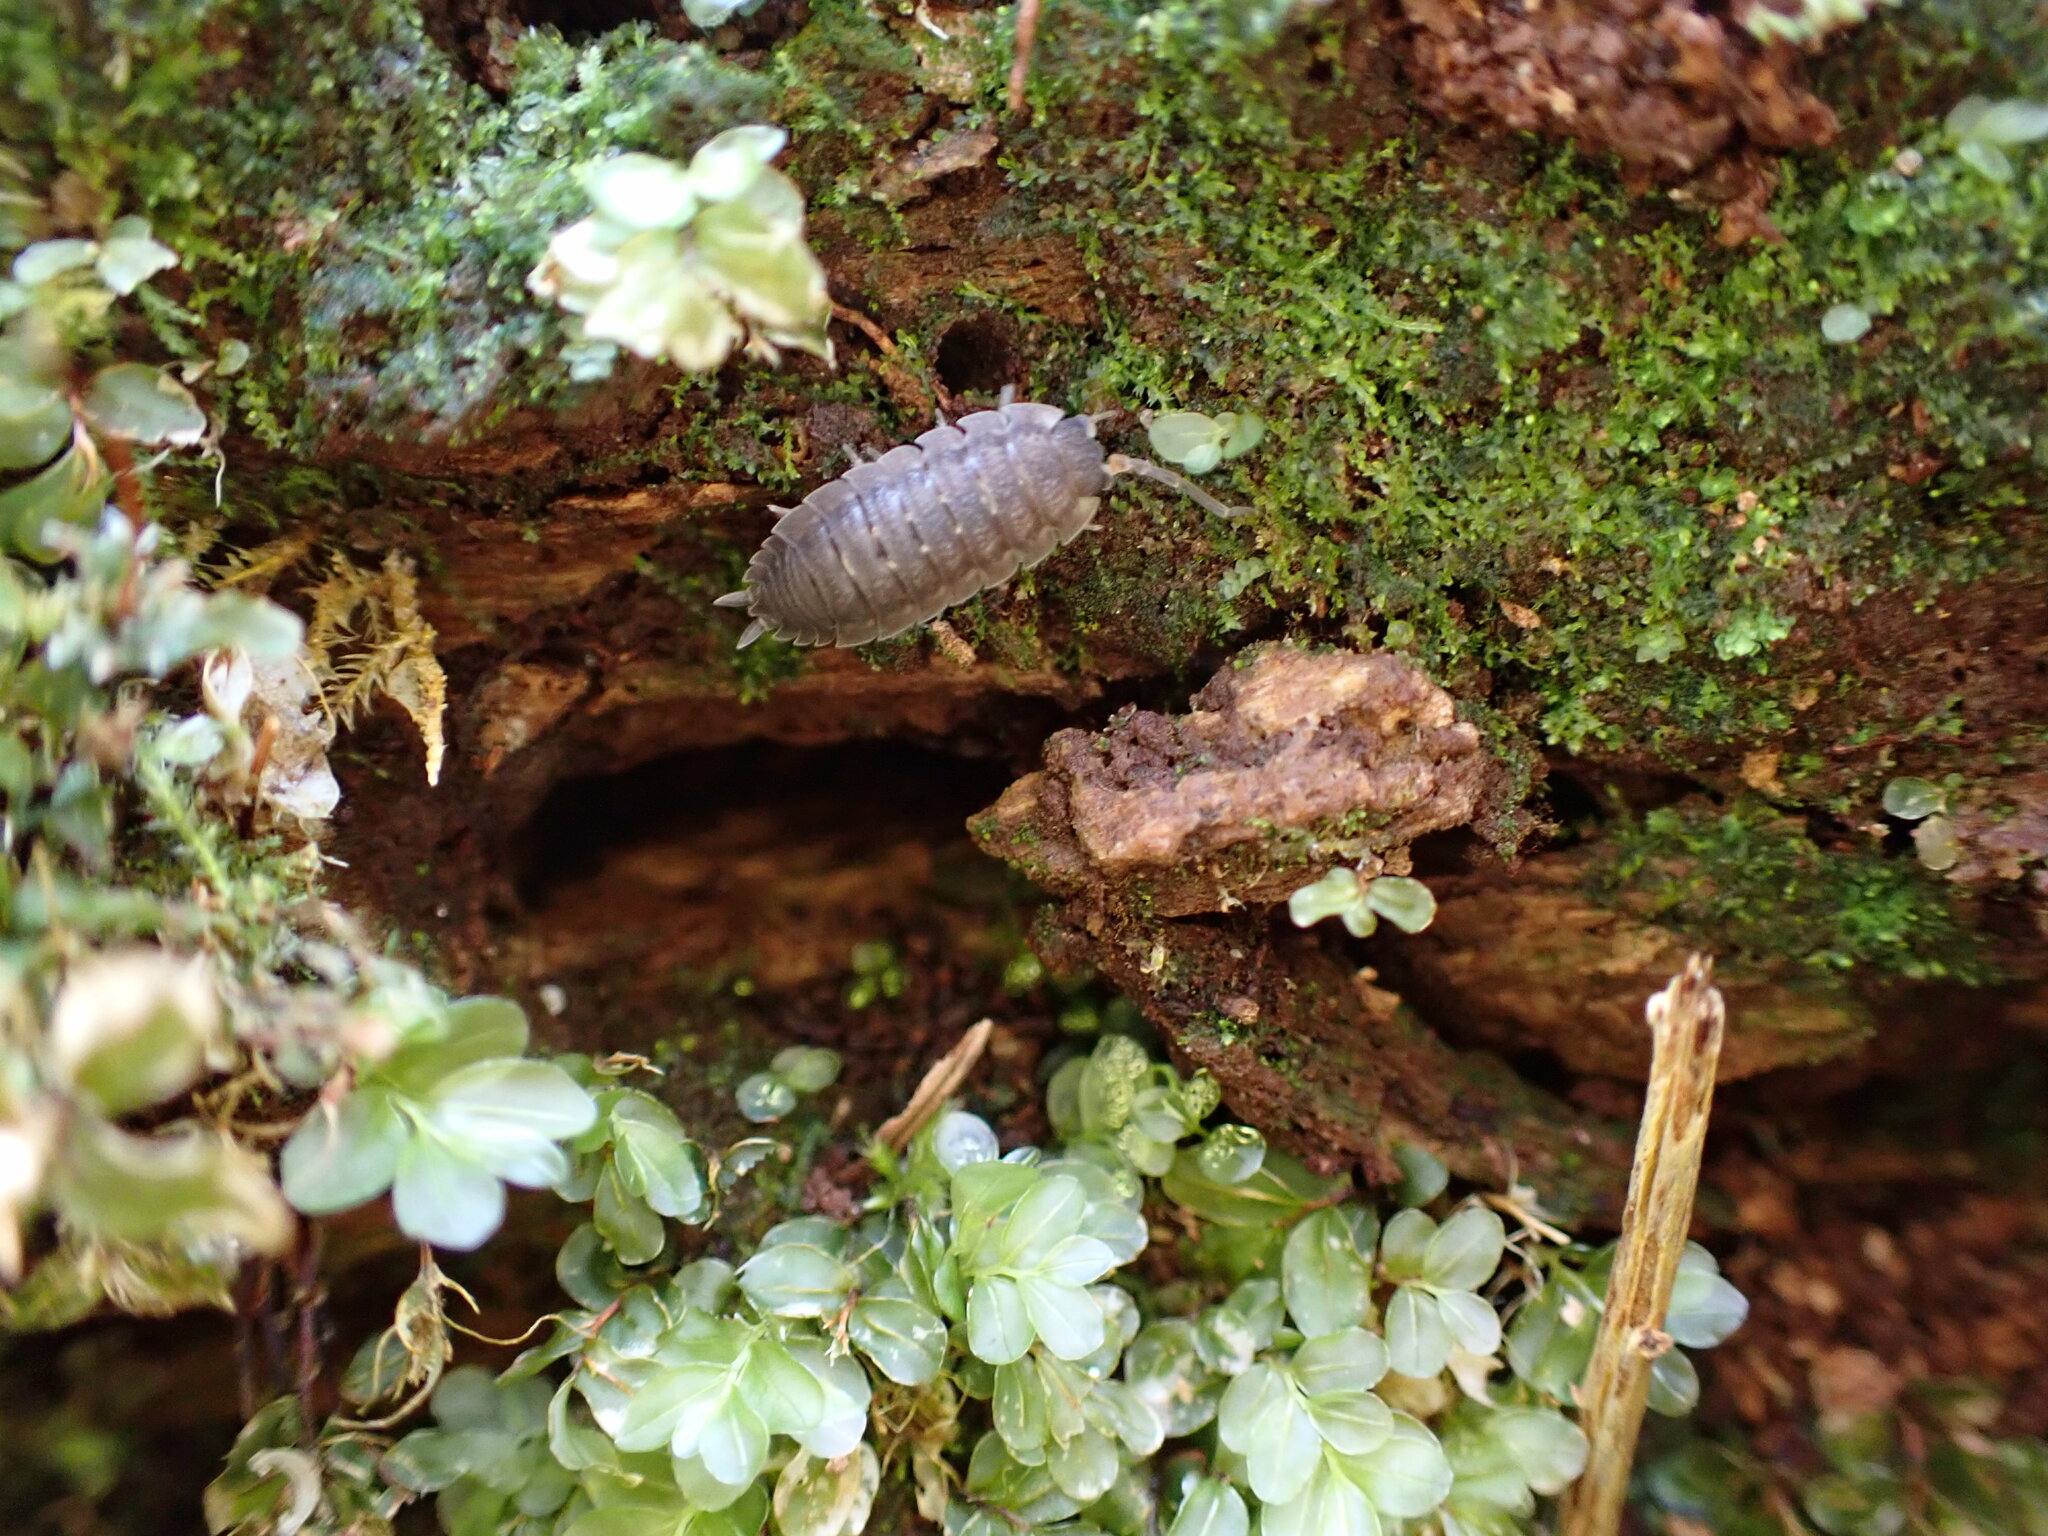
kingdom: Animalia
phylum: Arthropoda
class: Malacostraca
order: Isopoda
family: Porcellionidae
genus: Porcellio
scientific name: Porcellio scaber
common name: Common rough woodlouse
